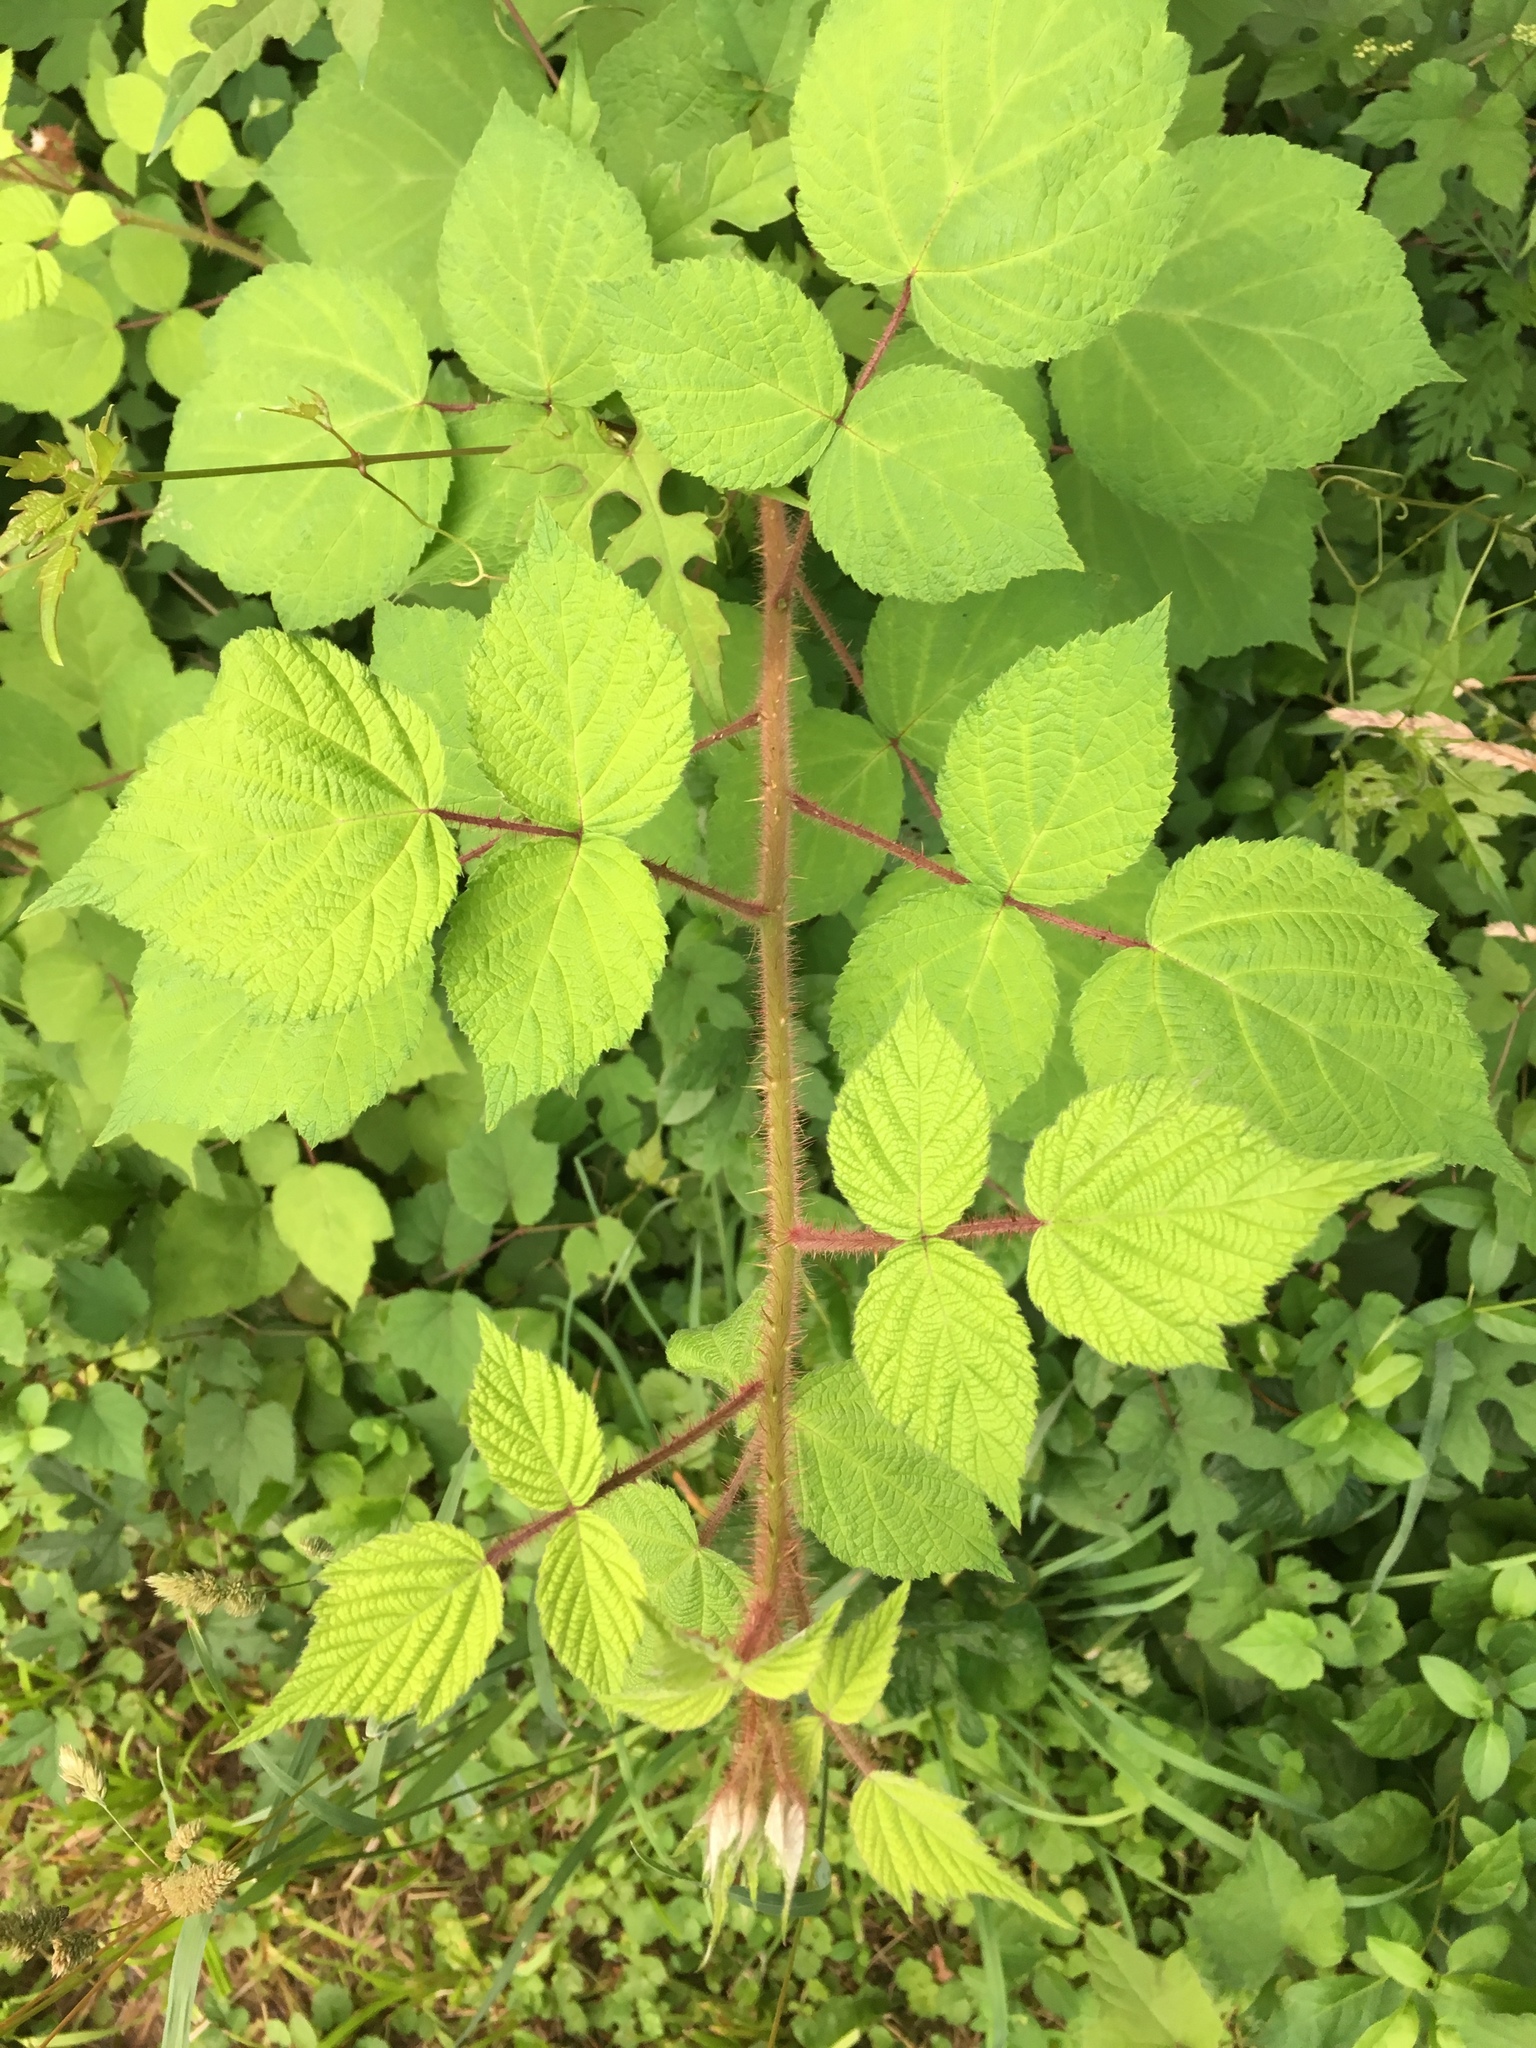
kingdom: Plantae
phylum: Tracheophyta
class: Magnoliopsida
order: Rosales
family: Rosaceae
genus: Rubus
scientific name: Rubus phoenicolasius
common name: Japanese wineberry
